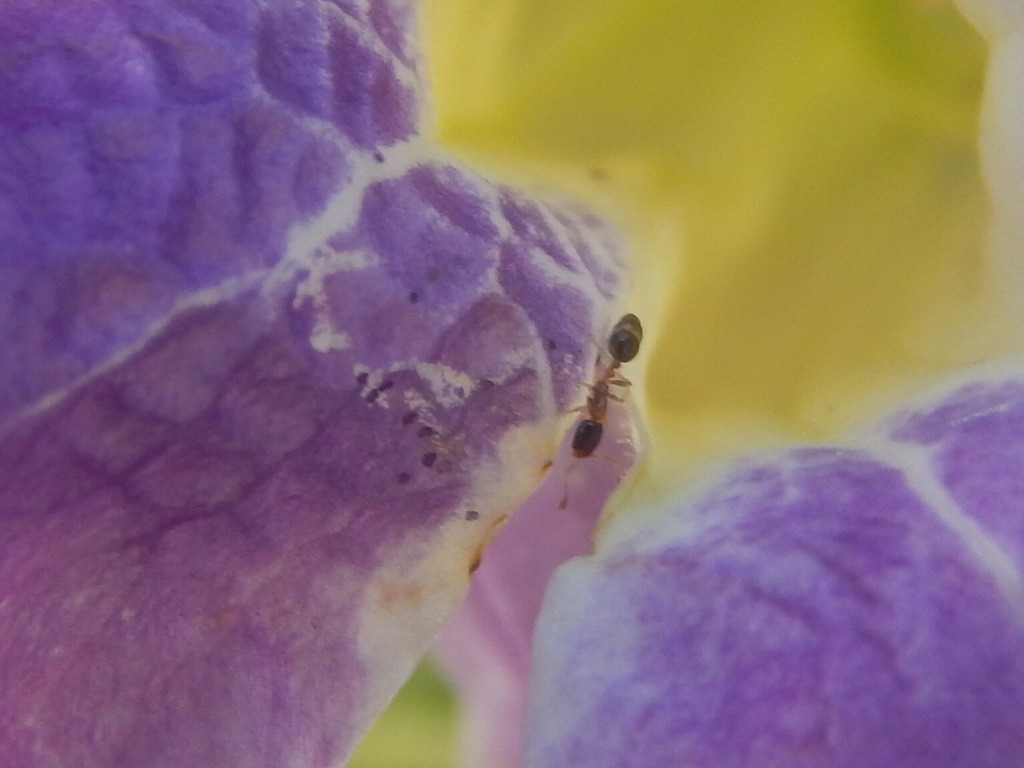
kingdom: Animalia
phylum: Arthropoda
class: Insecta
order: Hymenoptera
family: Formicidae
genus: Monomorium
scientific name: Monomorium floricola
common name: Bicolored trailing ant
